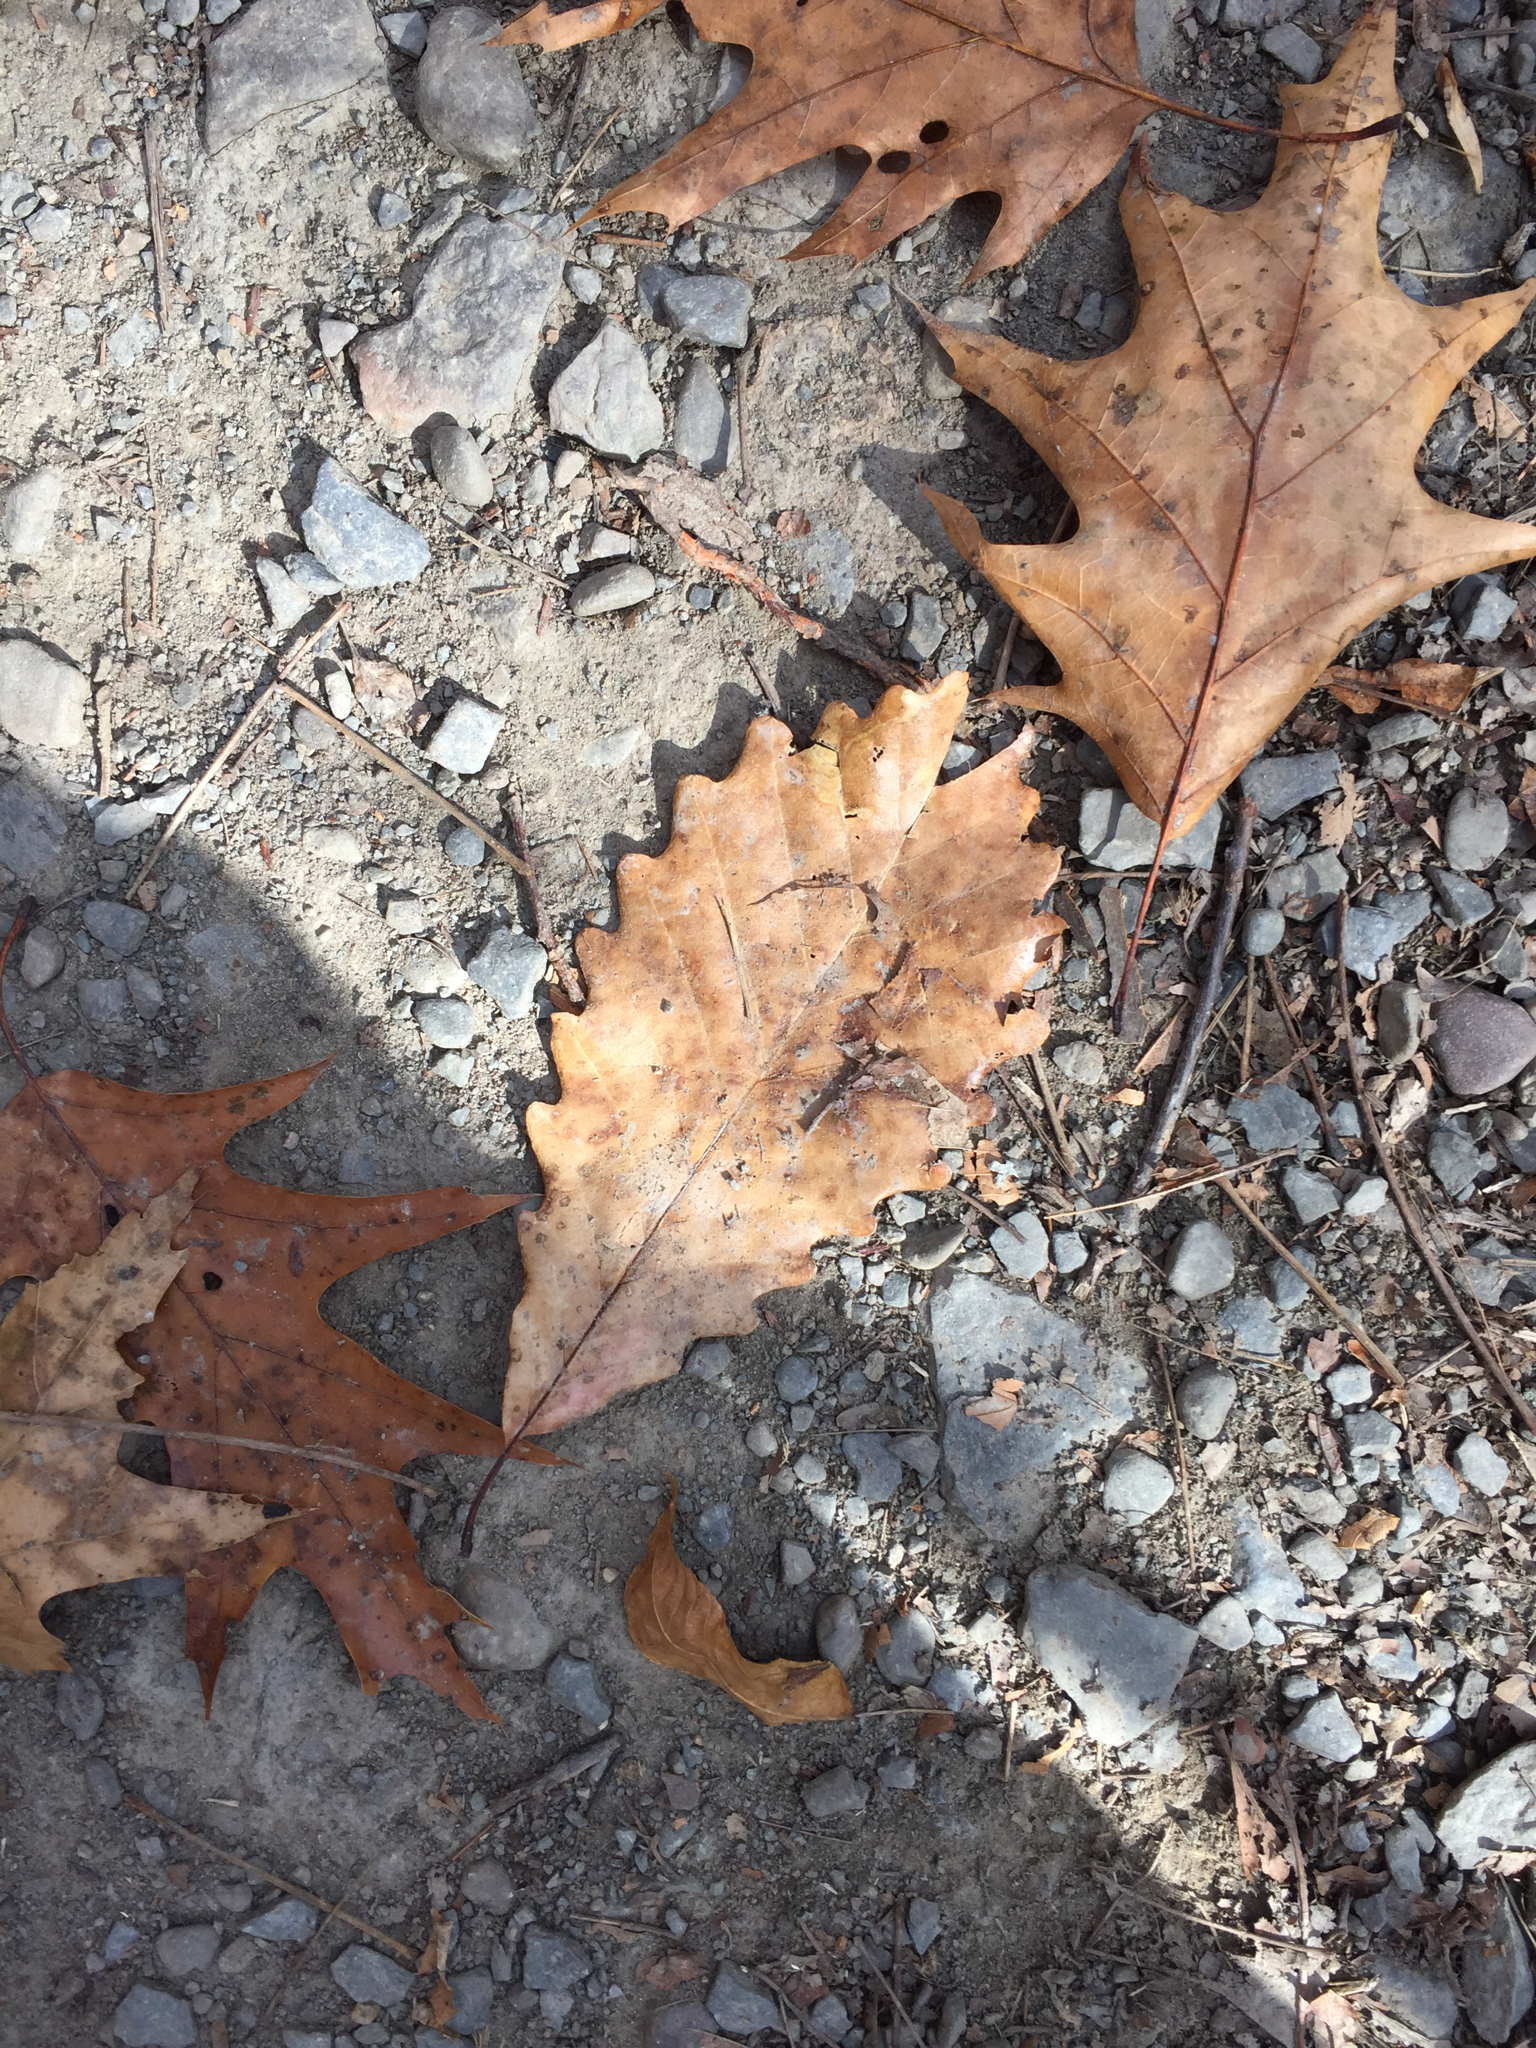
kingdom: Plantae
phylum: Tracheophyta
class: Magnoliopsida
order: Fagales
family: Fagaceae
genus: Quercus
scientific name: Quercus montana
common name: Chestnut oak
